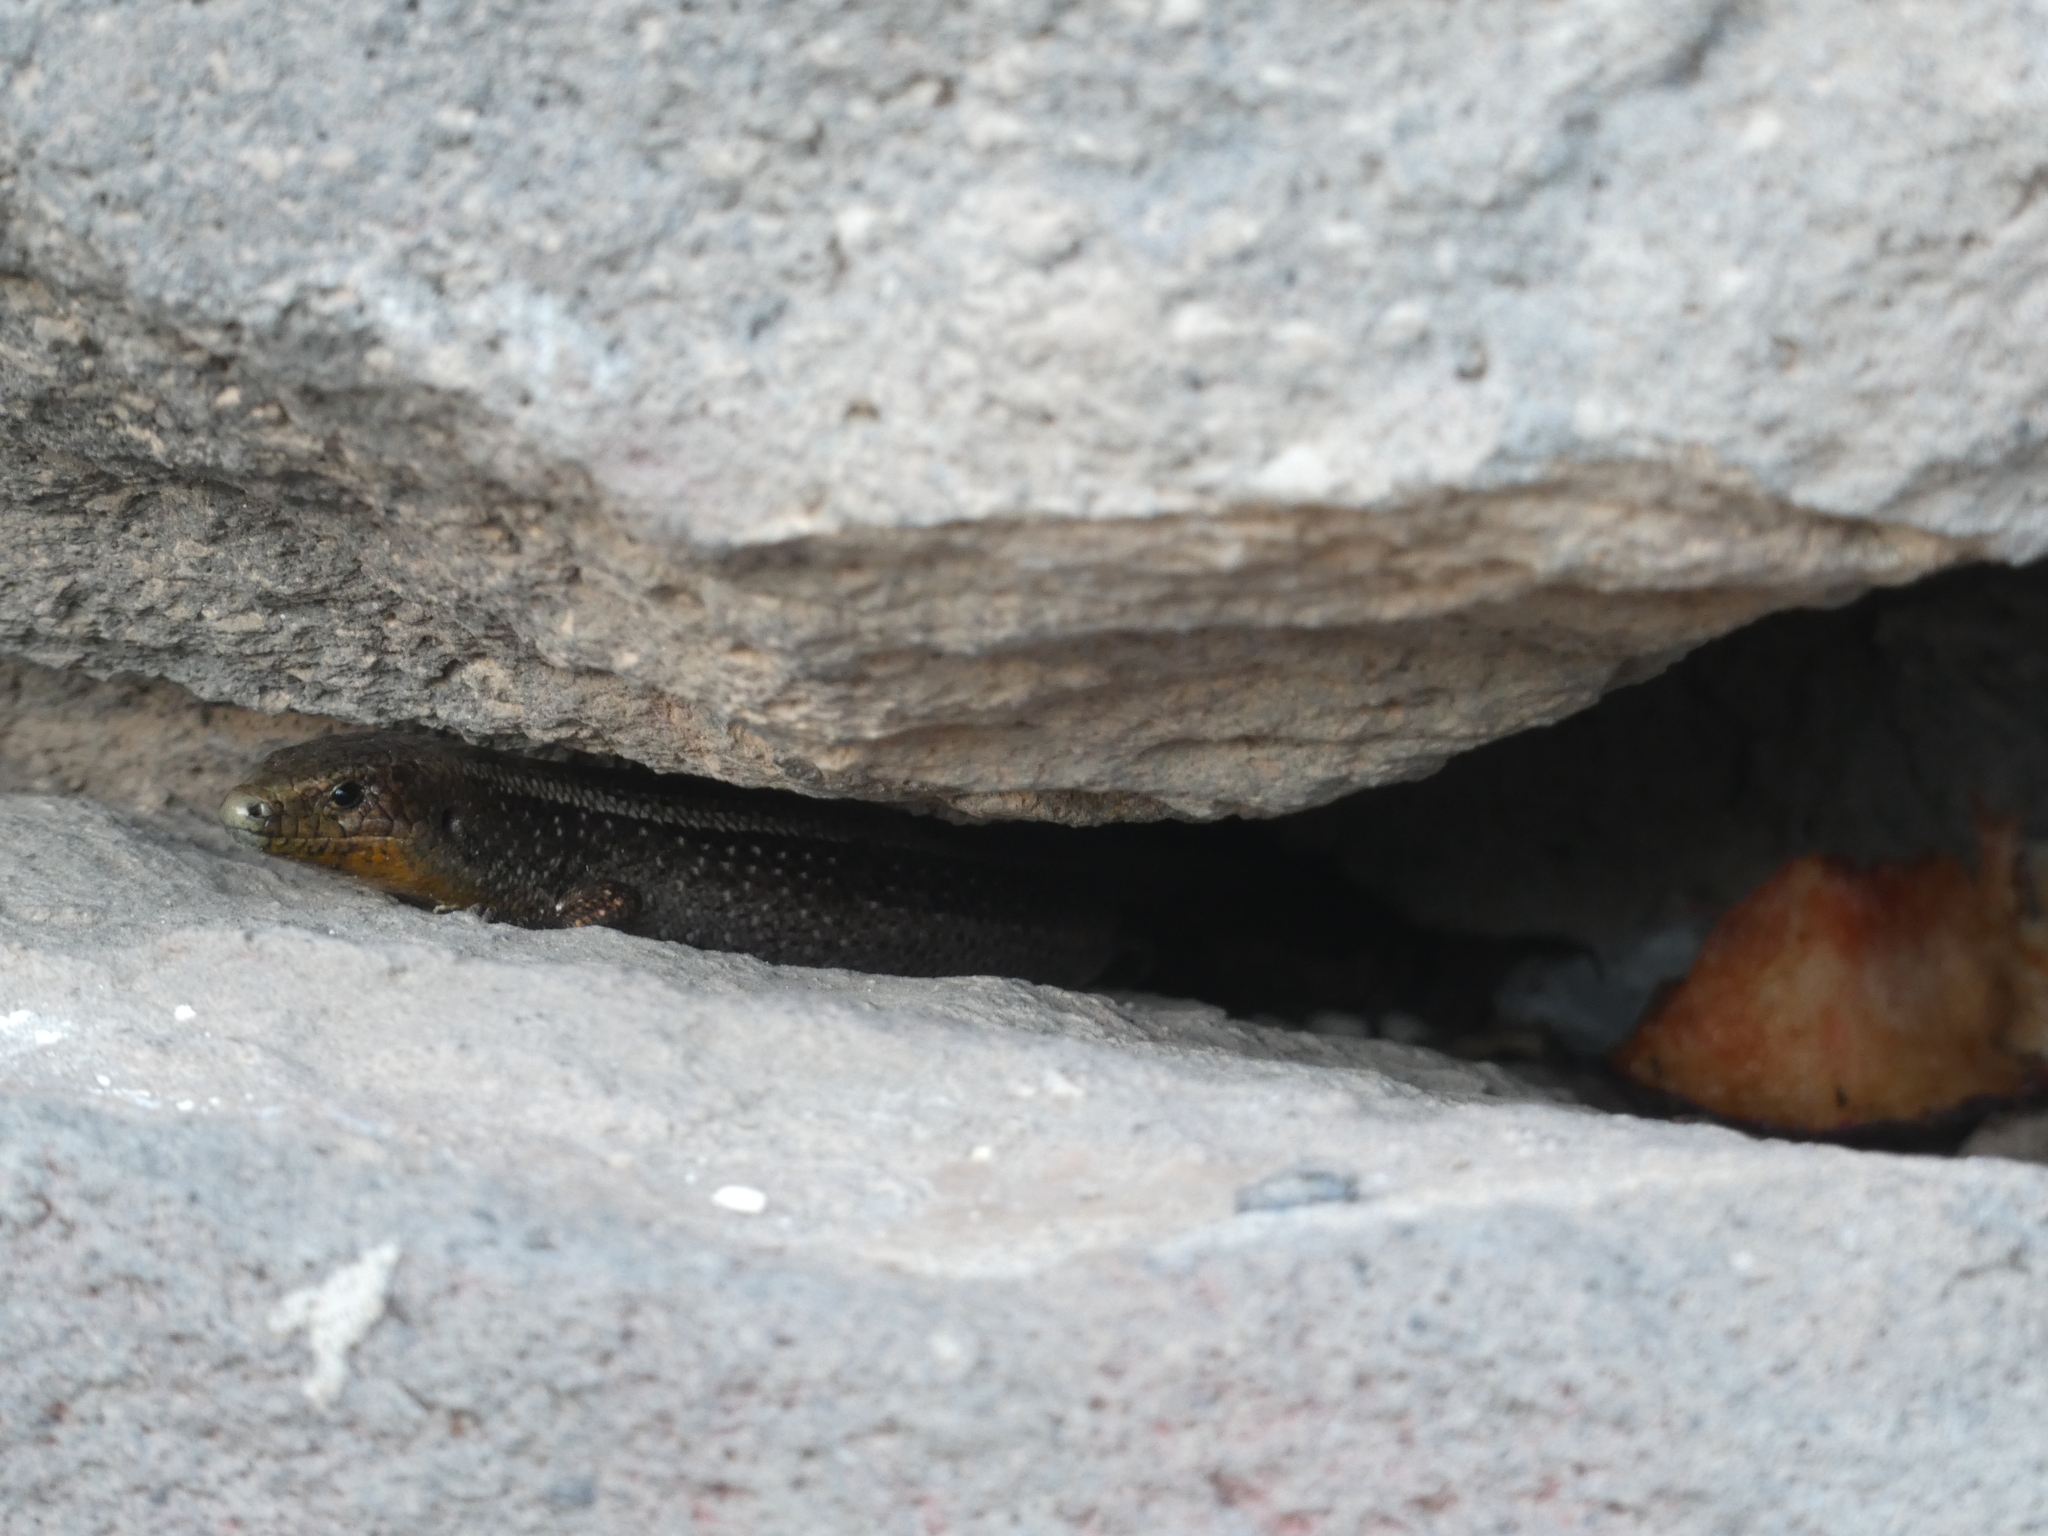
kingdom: Animalia
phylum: Chordata
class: Squamata
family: Scincidae
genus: Chalcides
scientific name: Chalcides sexlineatus
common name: Gran canaria skink
